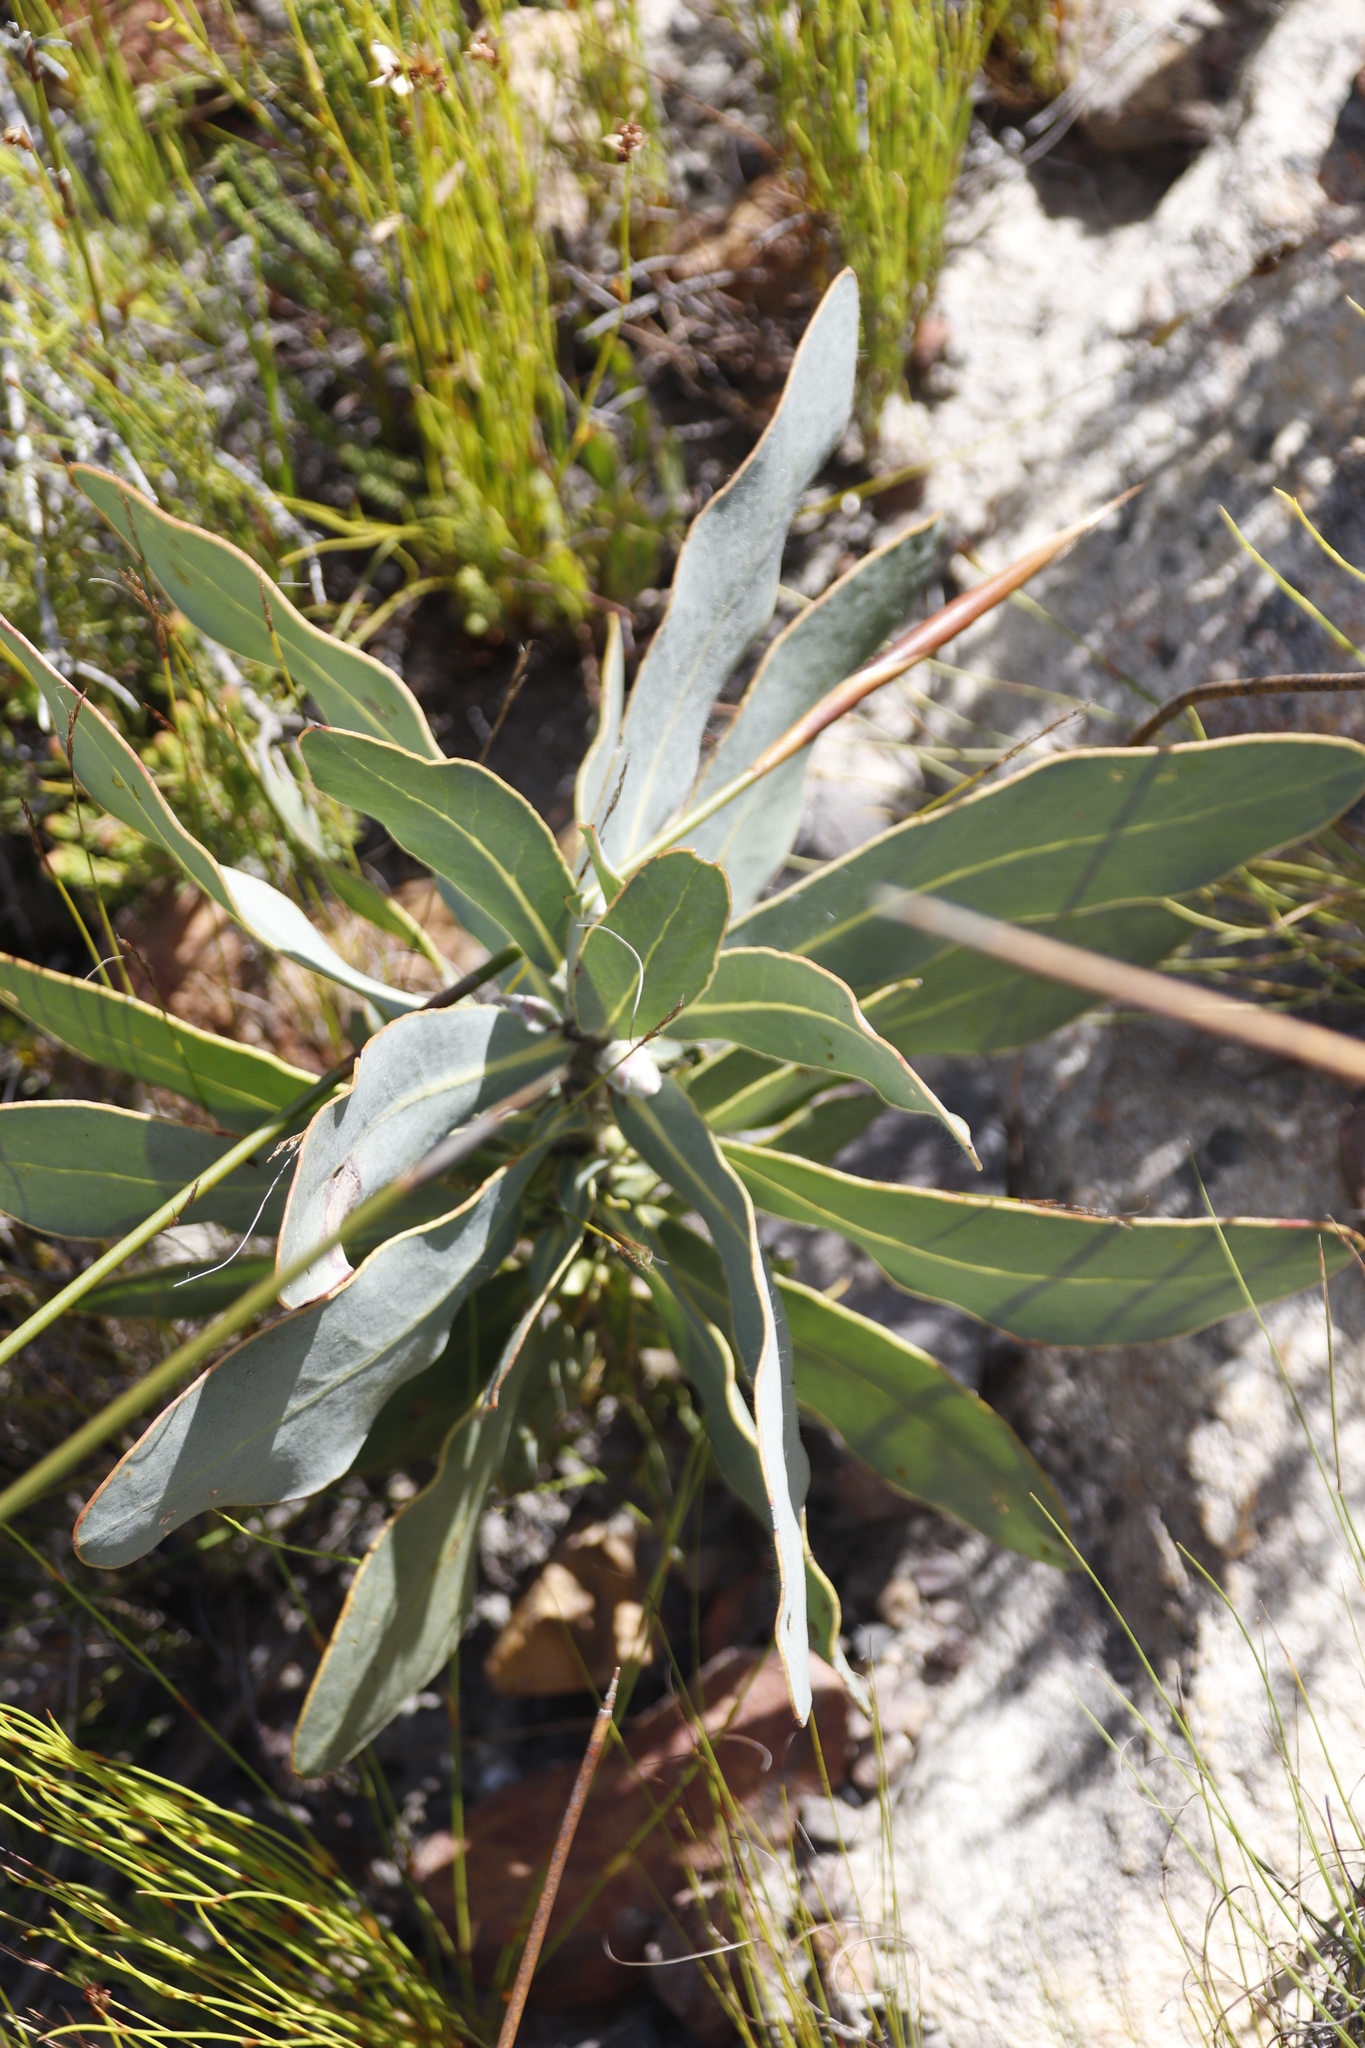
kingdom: Plantae
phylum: Tracheophyta
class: Magnoliopsida
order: Proteales
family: Proteaceae
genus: Protea
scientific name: Protea magnifica
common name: Bearded sugarbush
